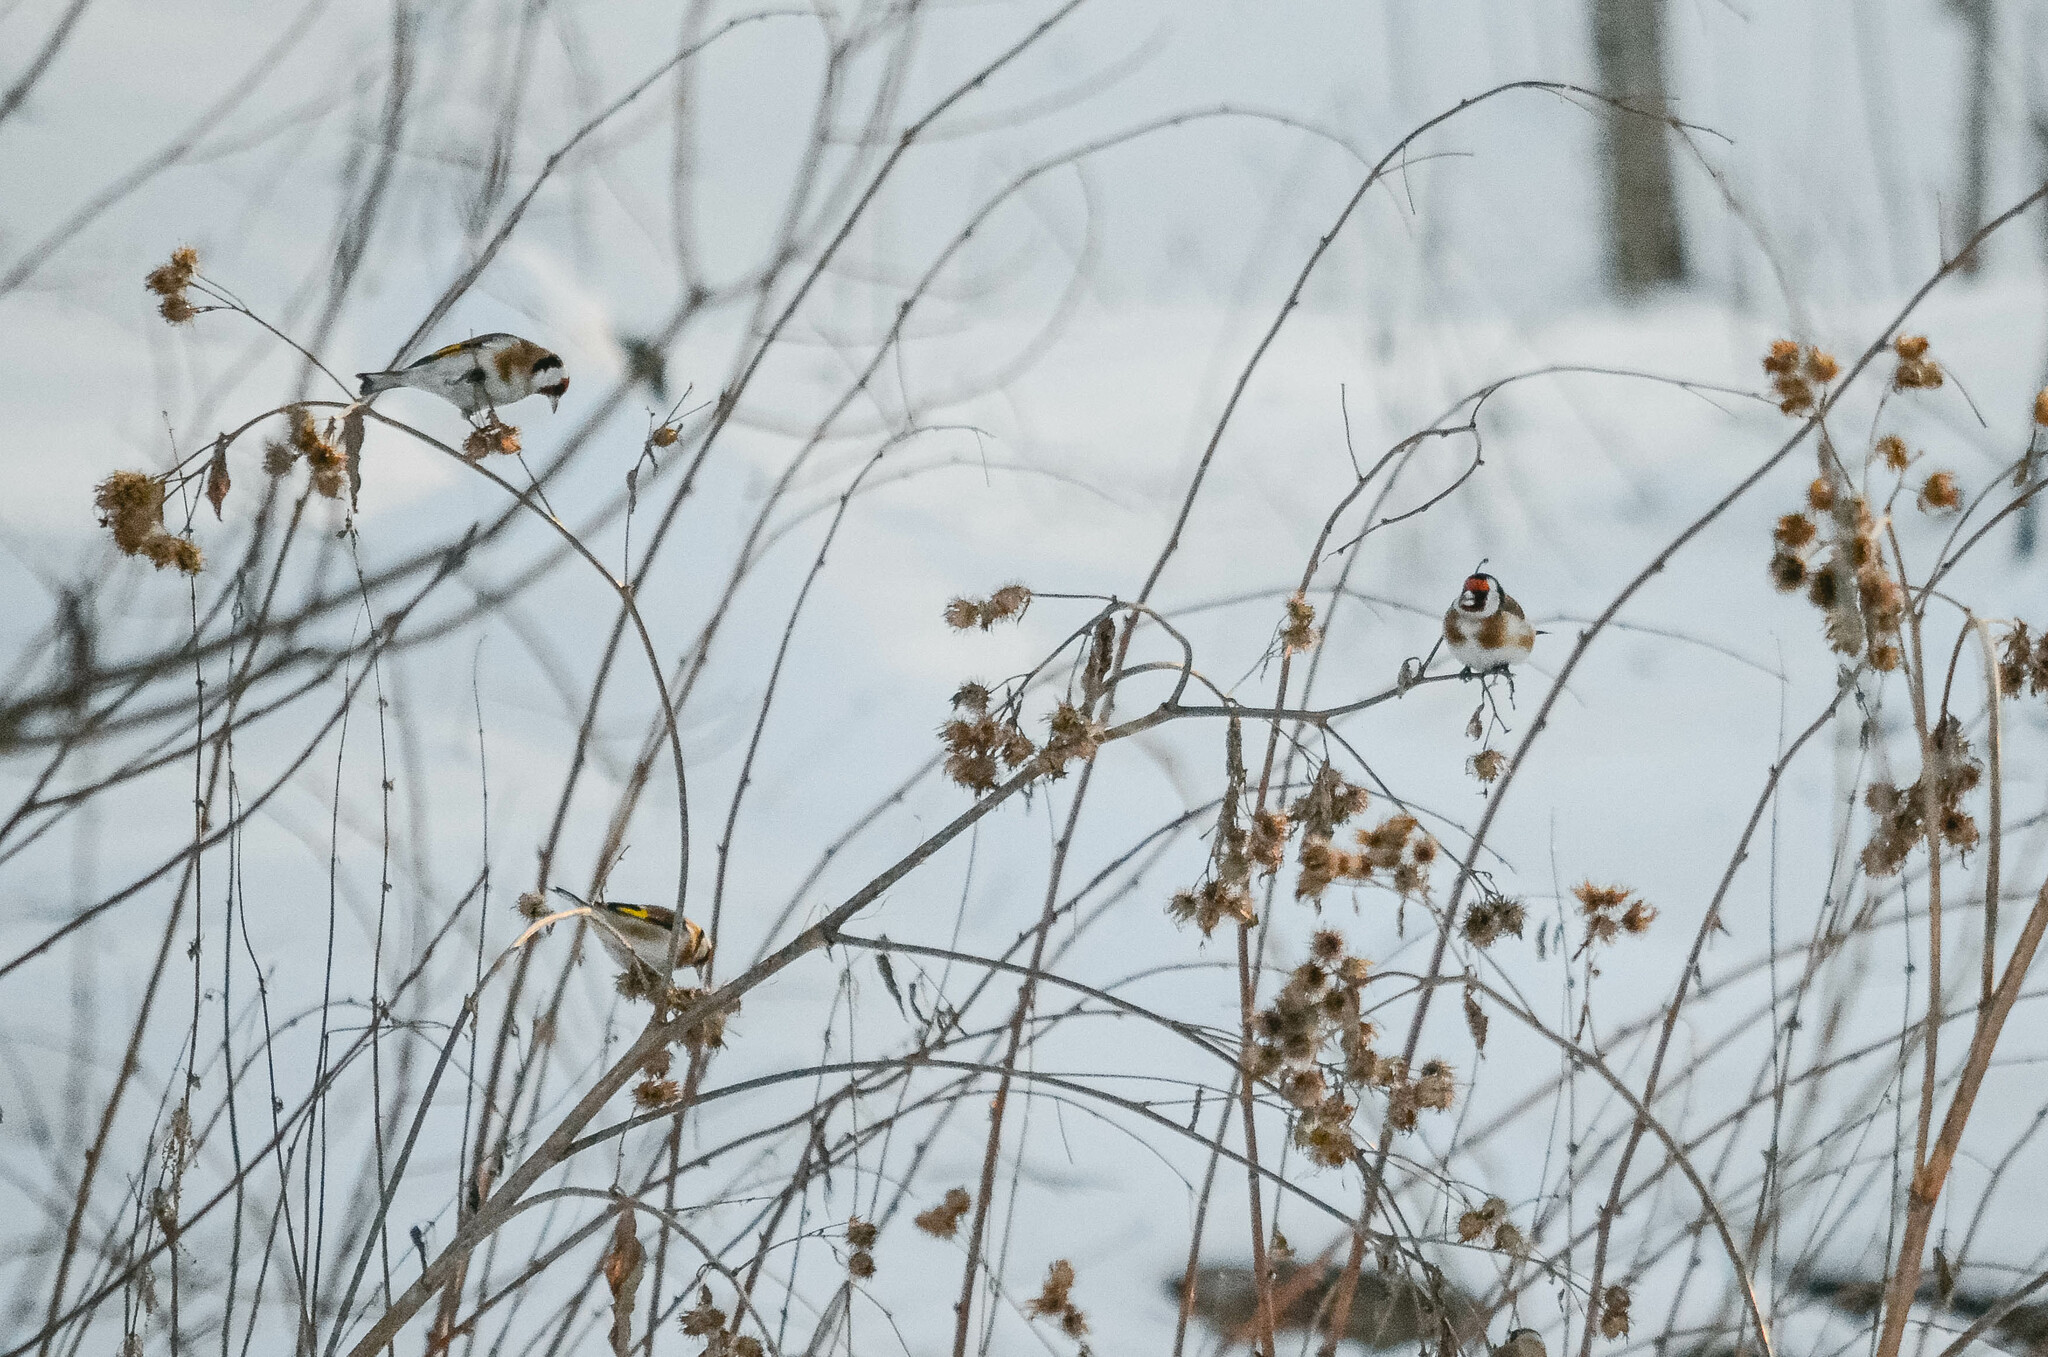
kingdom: Animalia
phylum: Chordata
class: Aves
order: Passeriformes
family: Fringillidae
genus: Carduelis
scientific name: Carduelis carduelis
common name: European goldfinch
